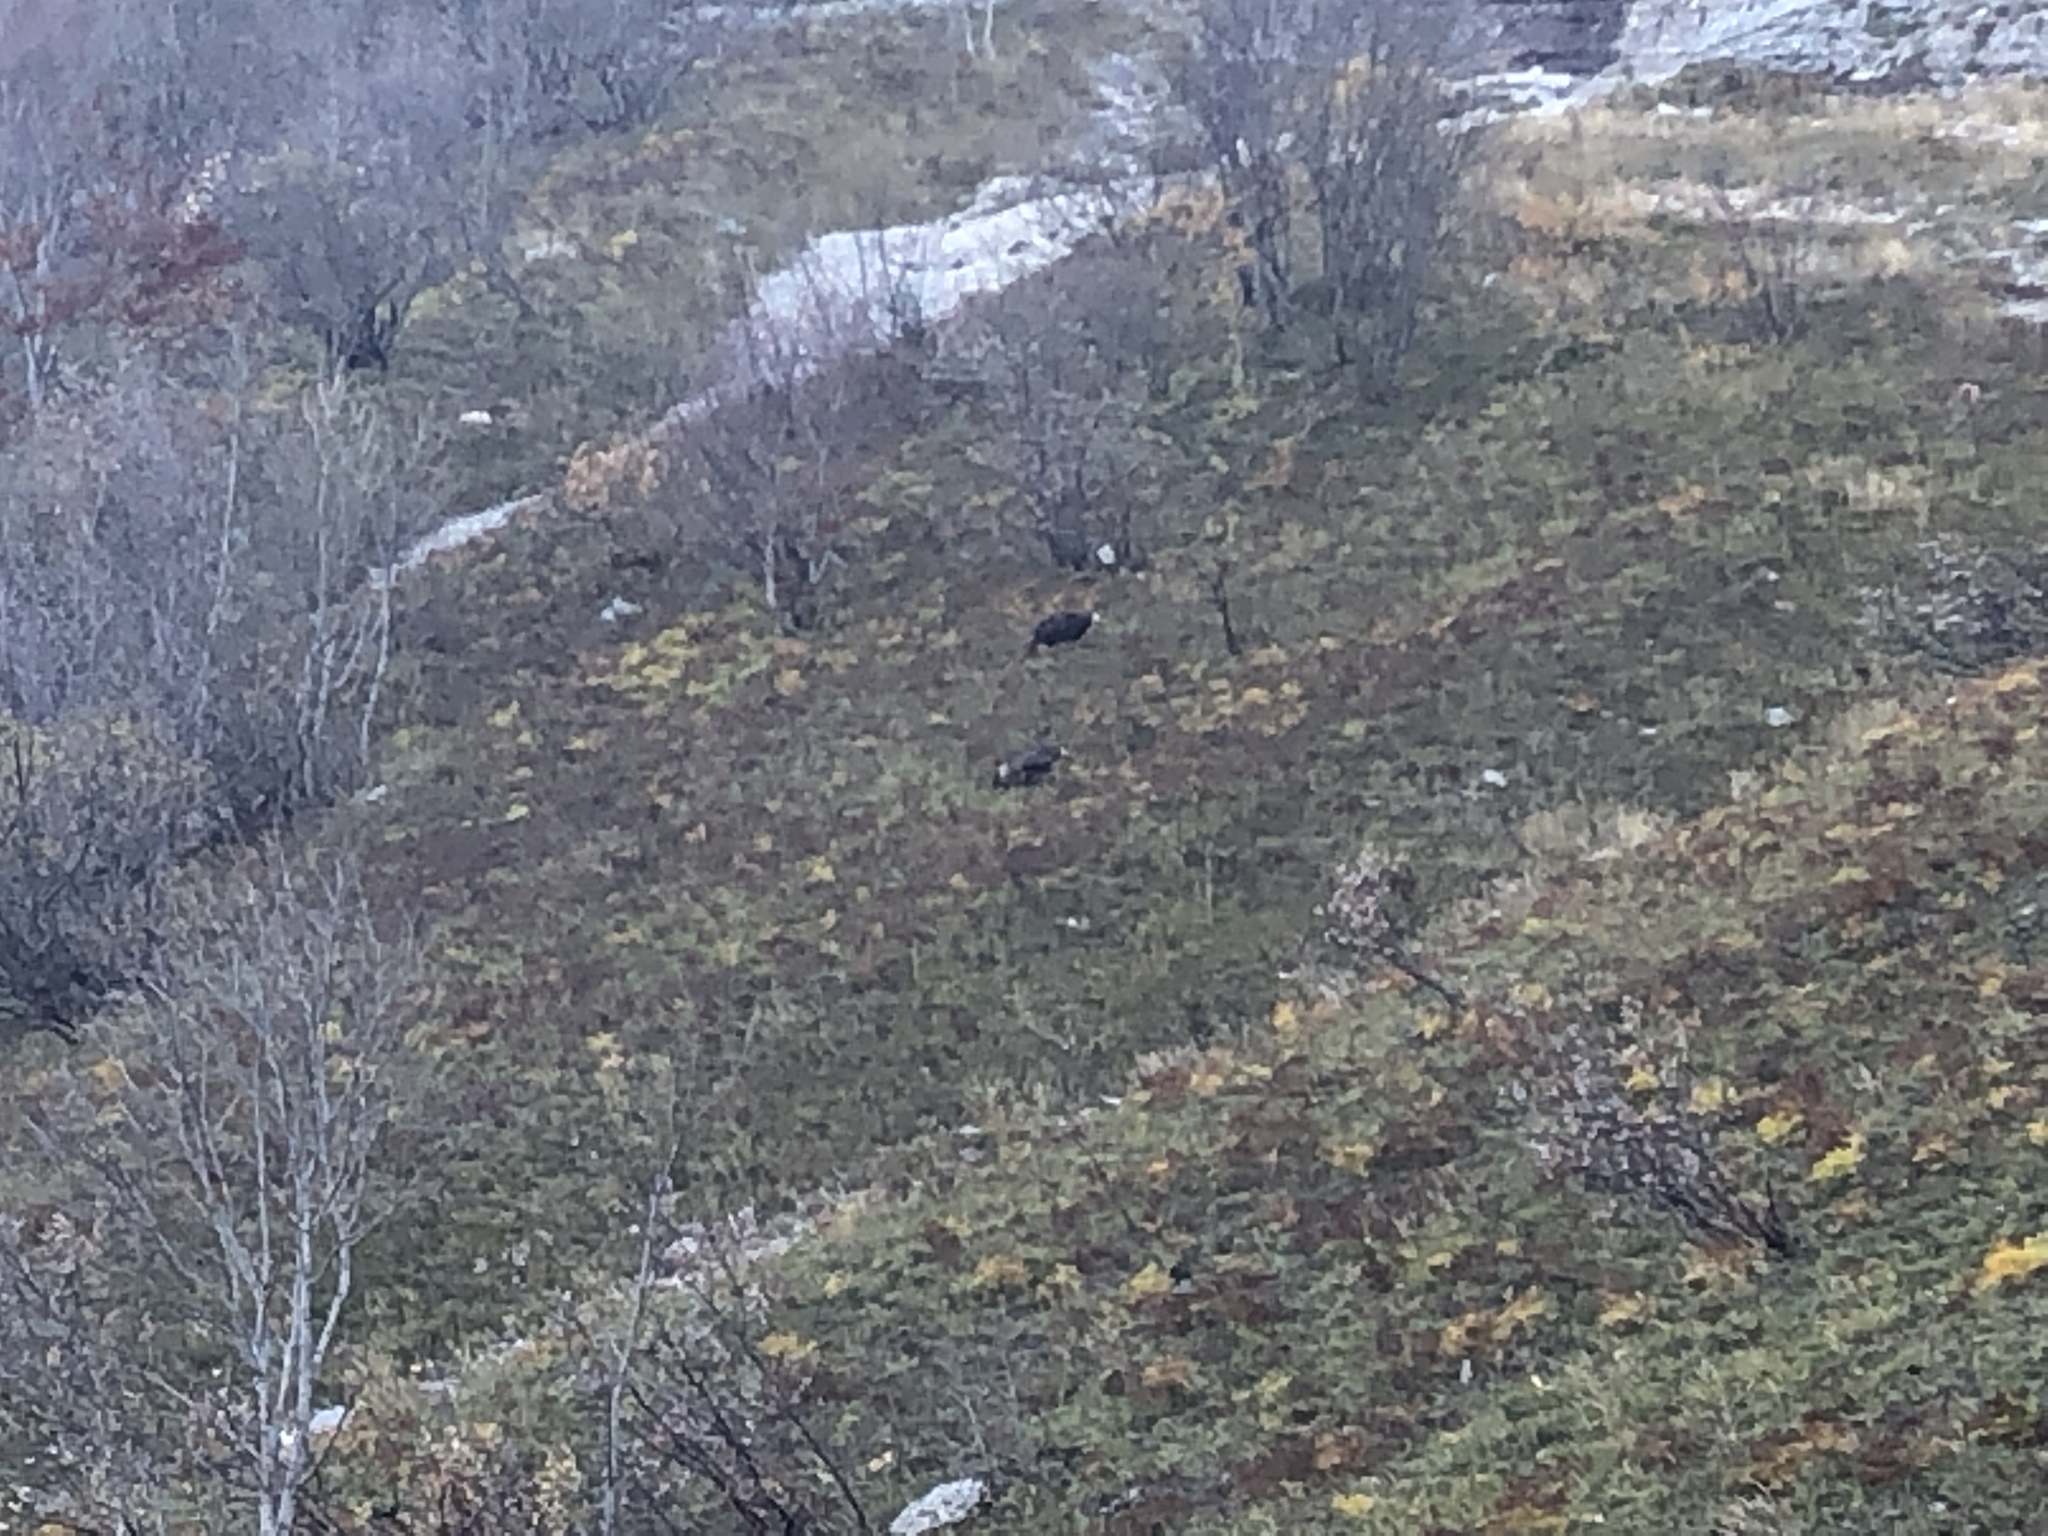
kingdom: Animalia
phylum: Chordata
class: Mammalia
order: Artiodactyla
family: Bovidae
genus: Rupicapra
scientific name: Rupicapra rupicapra
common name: Chamois
